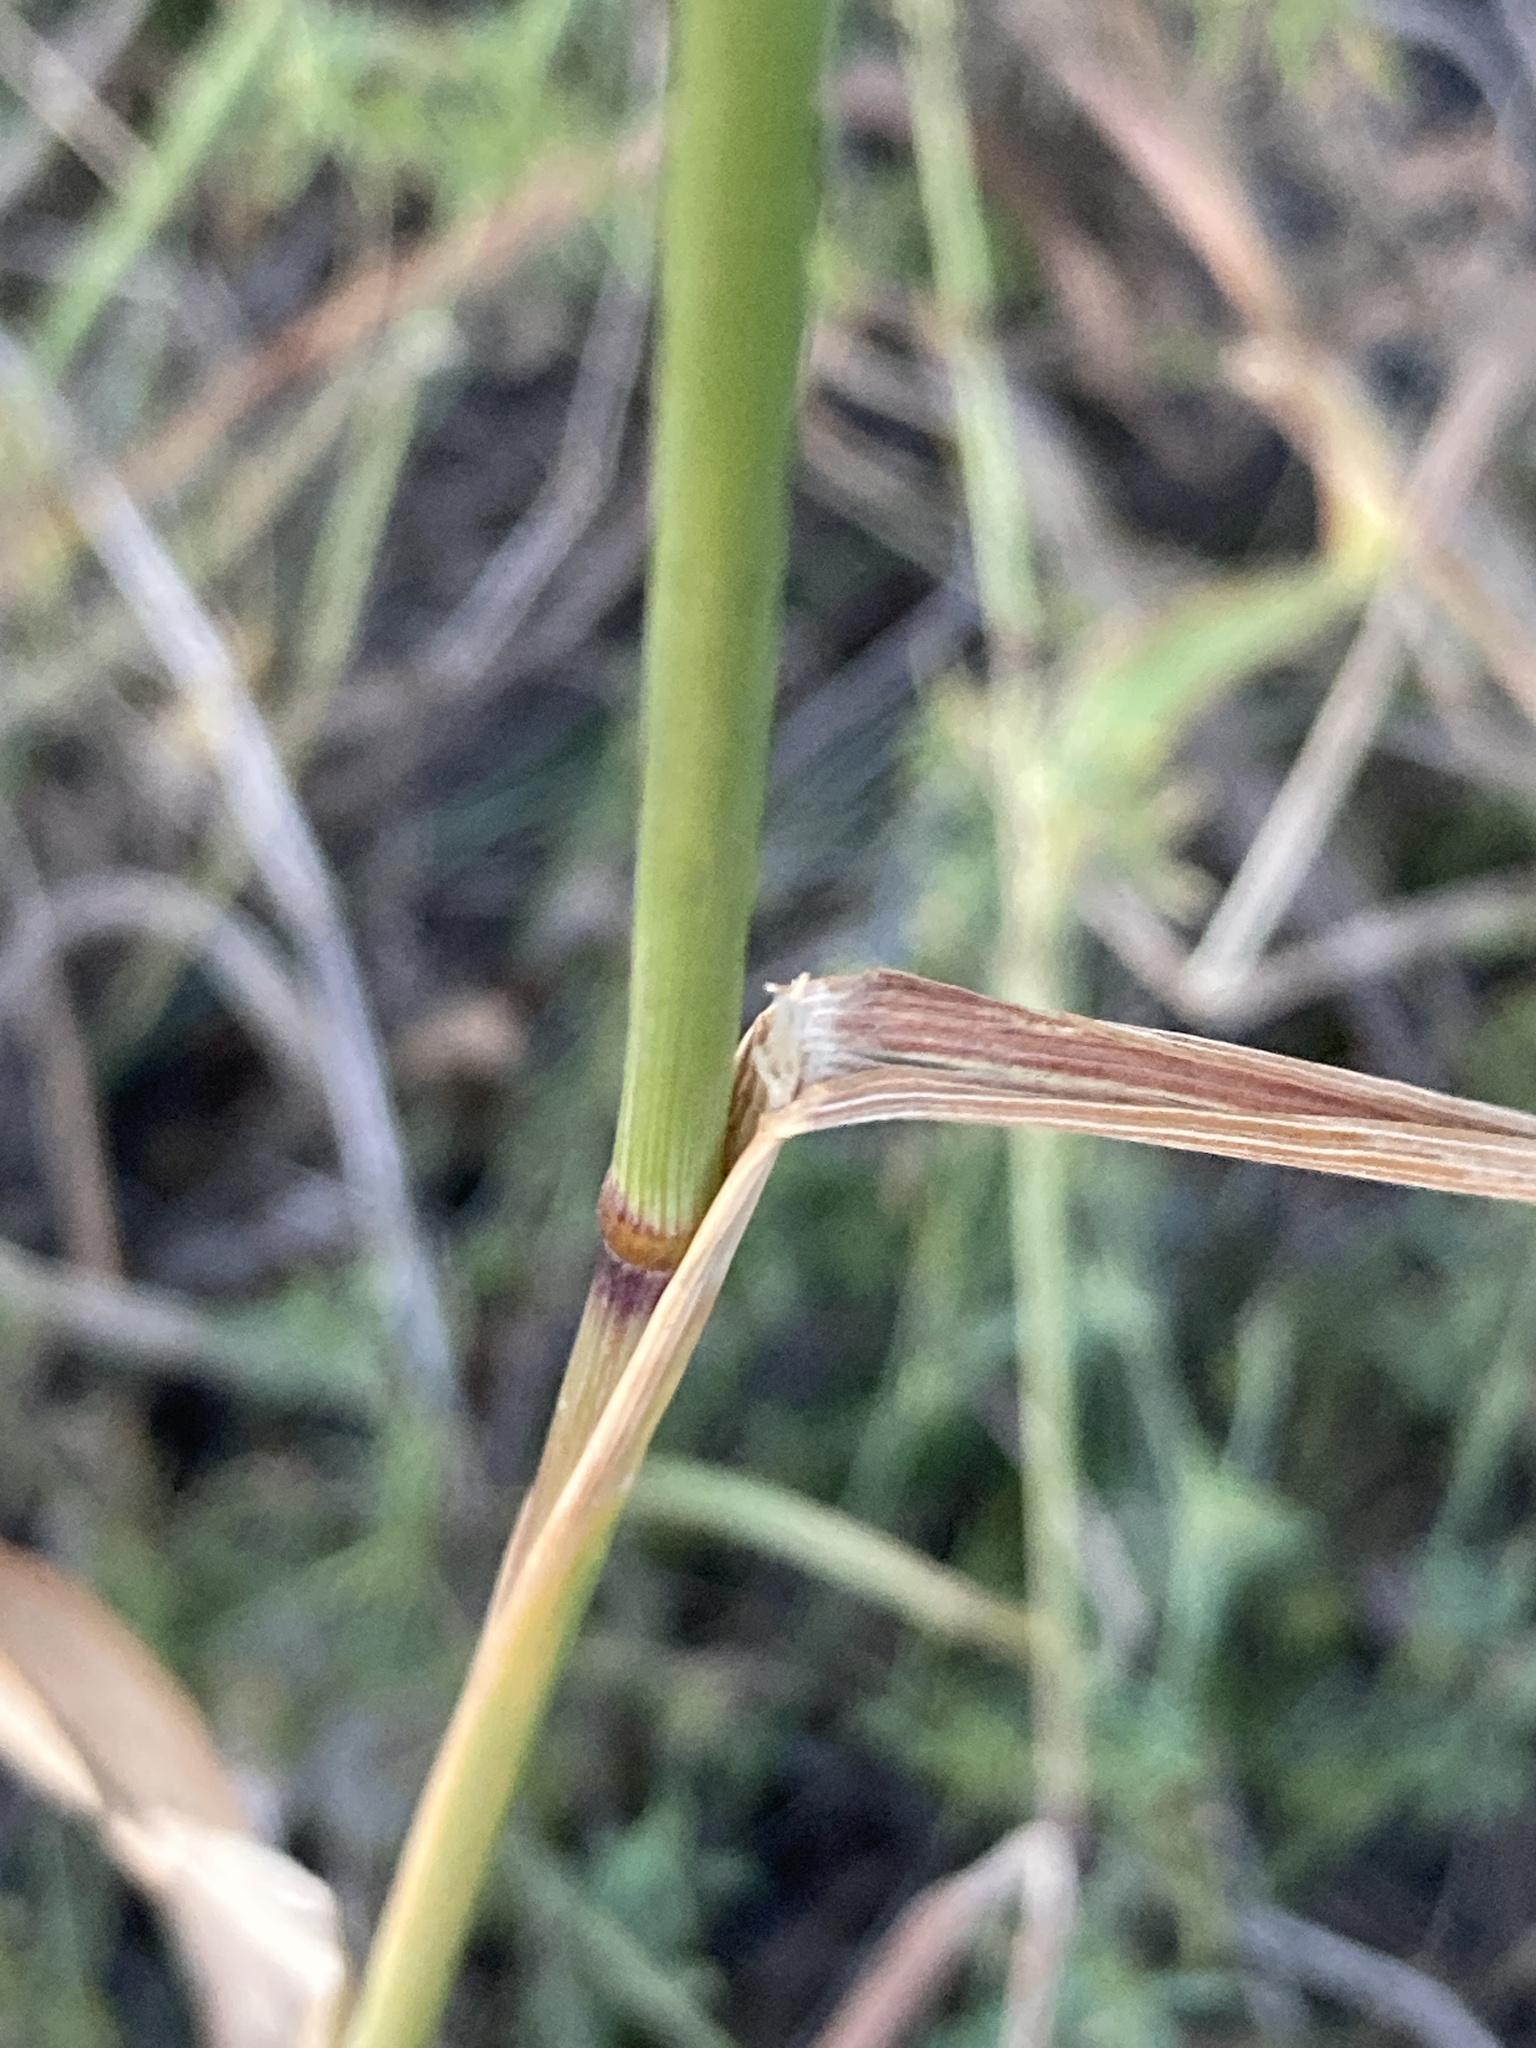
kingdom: Plantae
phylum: Tracheophyta
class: Liliopsida
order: Poales
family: Poaceae
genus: Phleum
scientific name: Phleum phleoides
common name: Purple-stem cat's-tail
